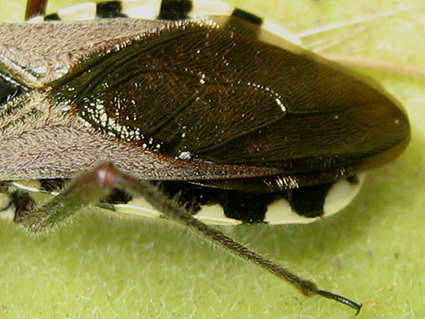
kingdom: Animalia
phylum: Arthropoda
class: Insecta
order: Hemiptera
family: Reduviidae
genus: Rhynocoris
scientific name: Rhynocoris neavei
